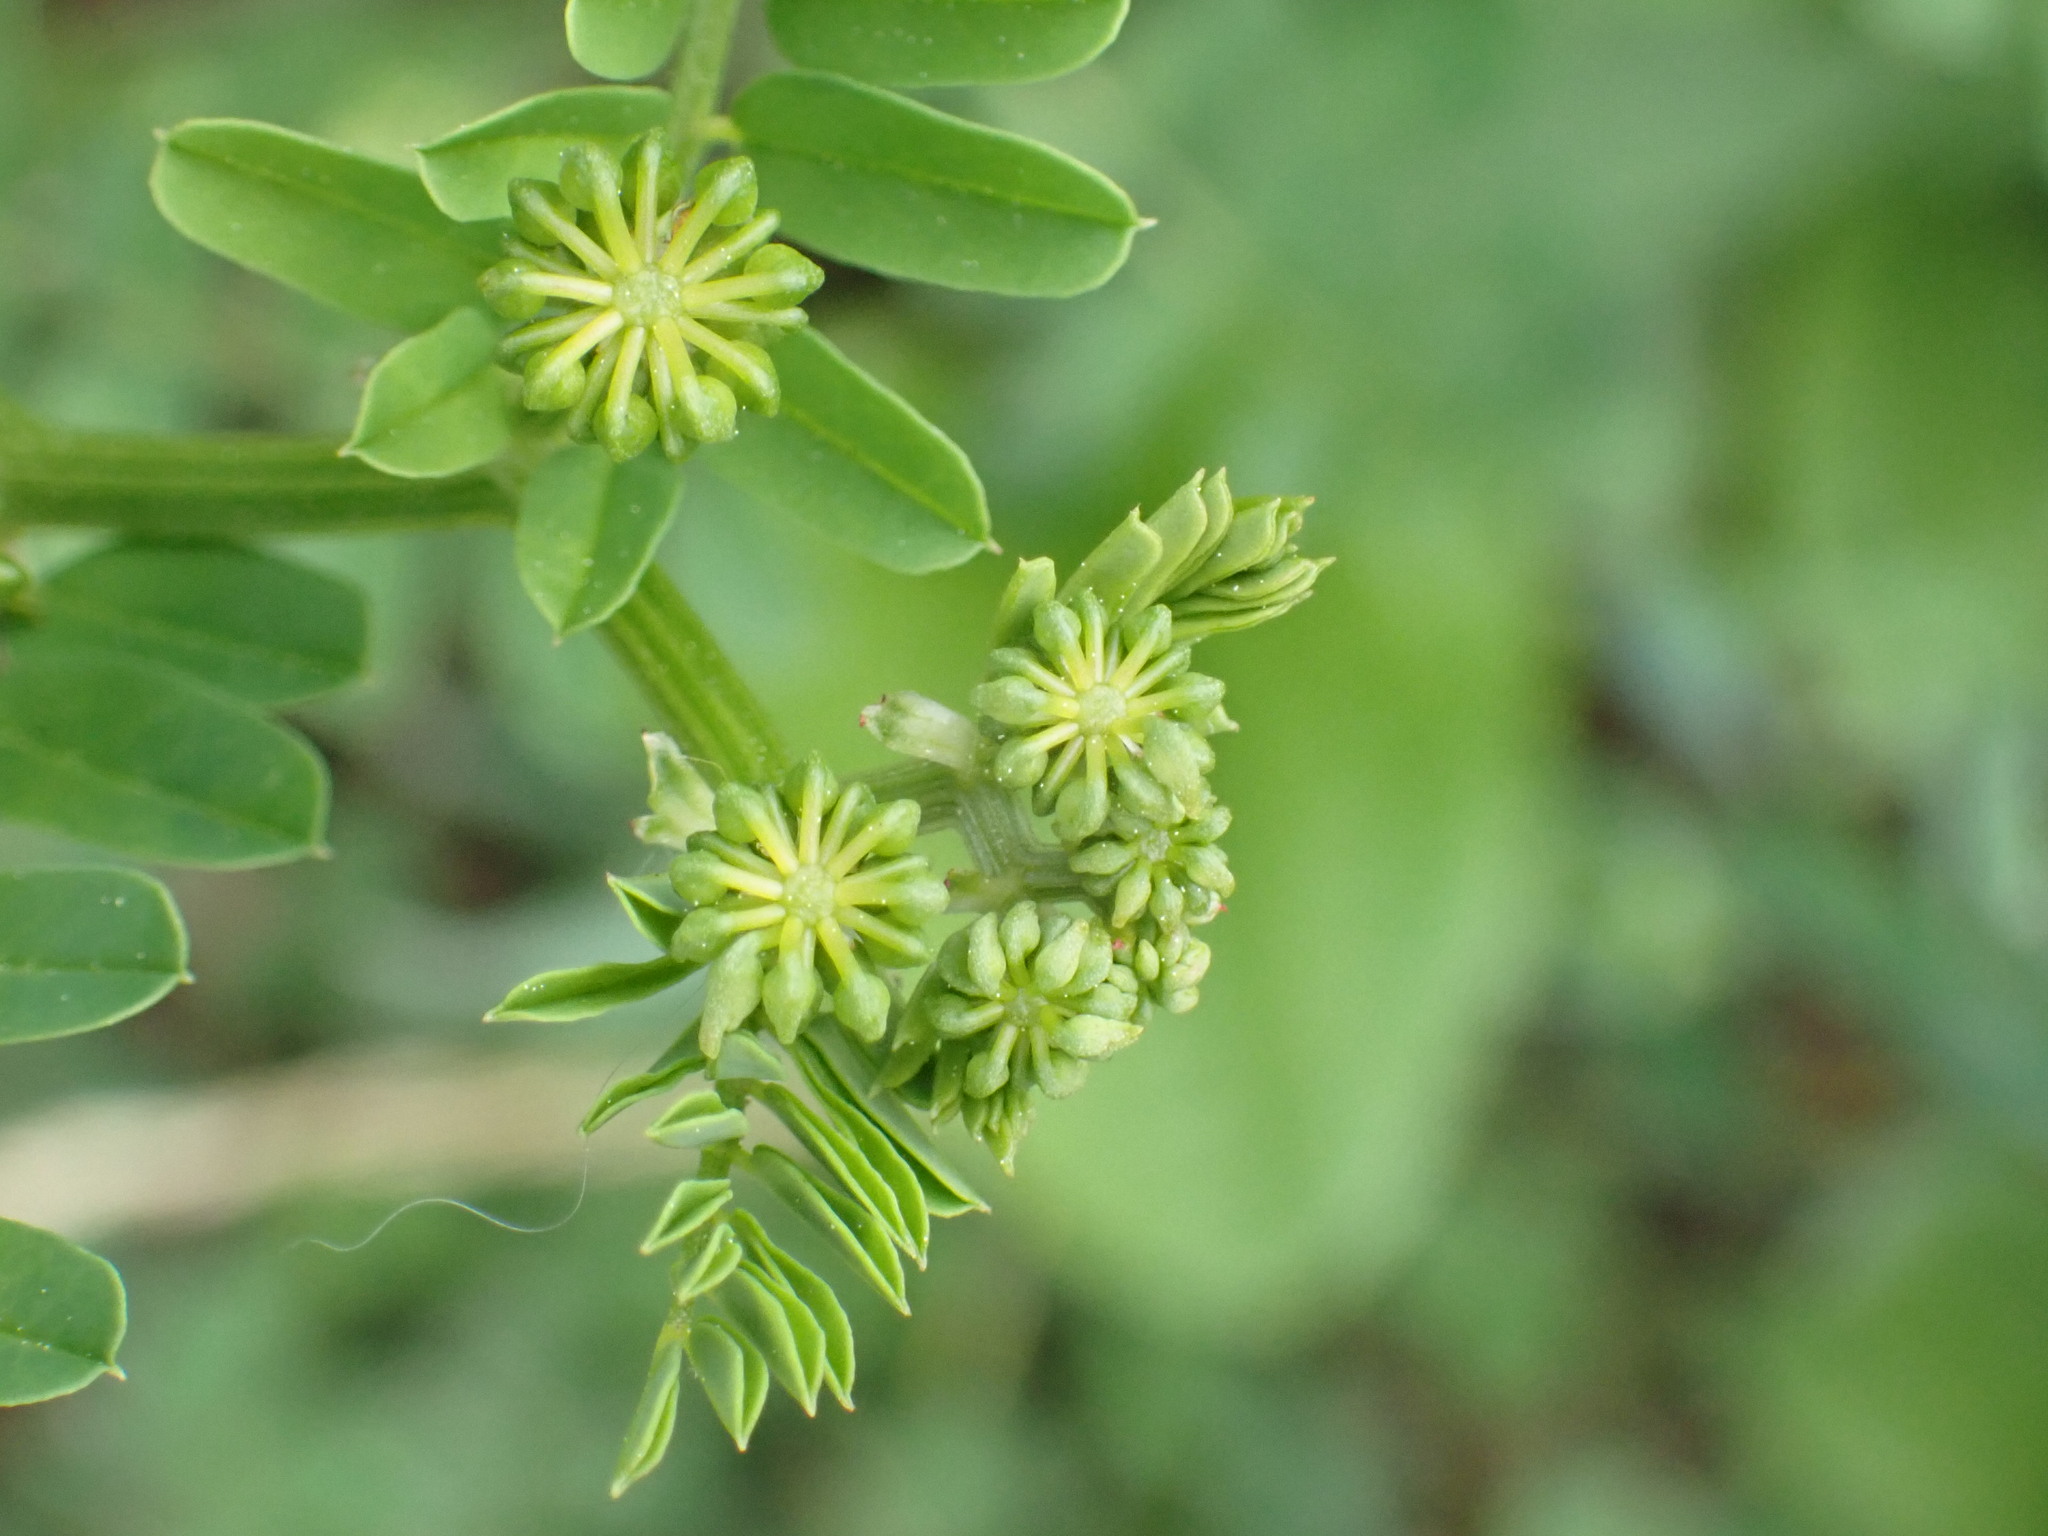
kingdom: Plantae
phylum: Tracheophyta
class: Magnoliopsida
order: Fabales
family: Fabaceae
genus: Coronilla
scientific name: Coronilla varia
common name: Crownvetch
